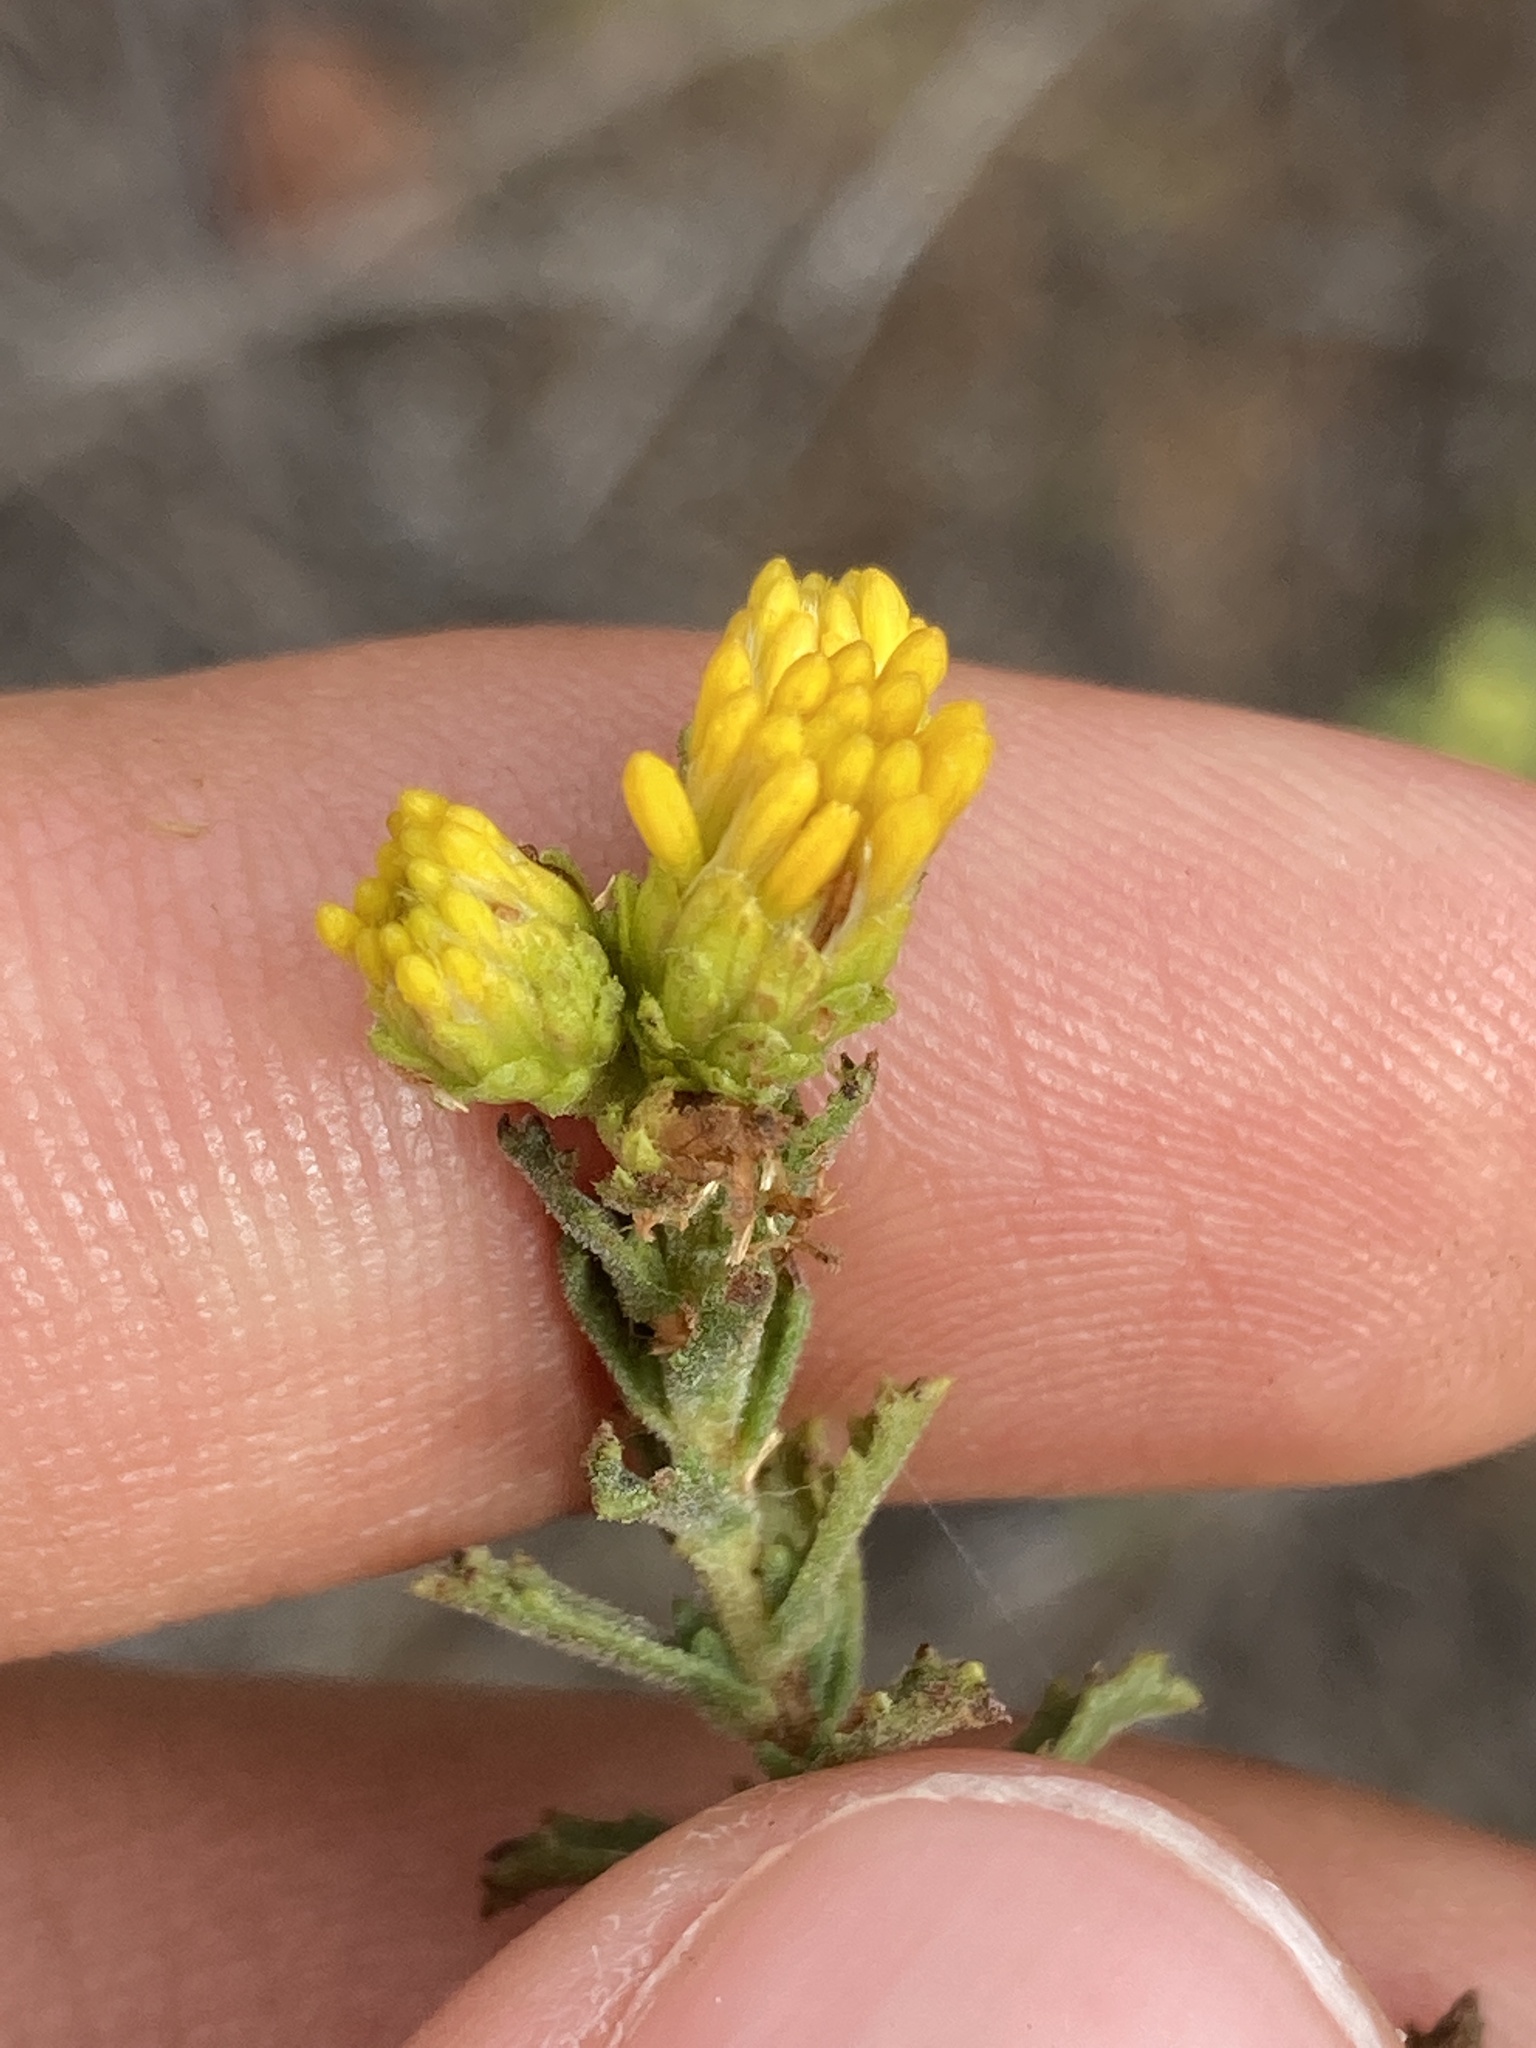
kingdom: Plantae
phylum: Tracheophyta
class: Magnoliopsida
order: Asterales
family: Asteraceae
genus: Isocoma
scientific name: Isocoma menziesii
